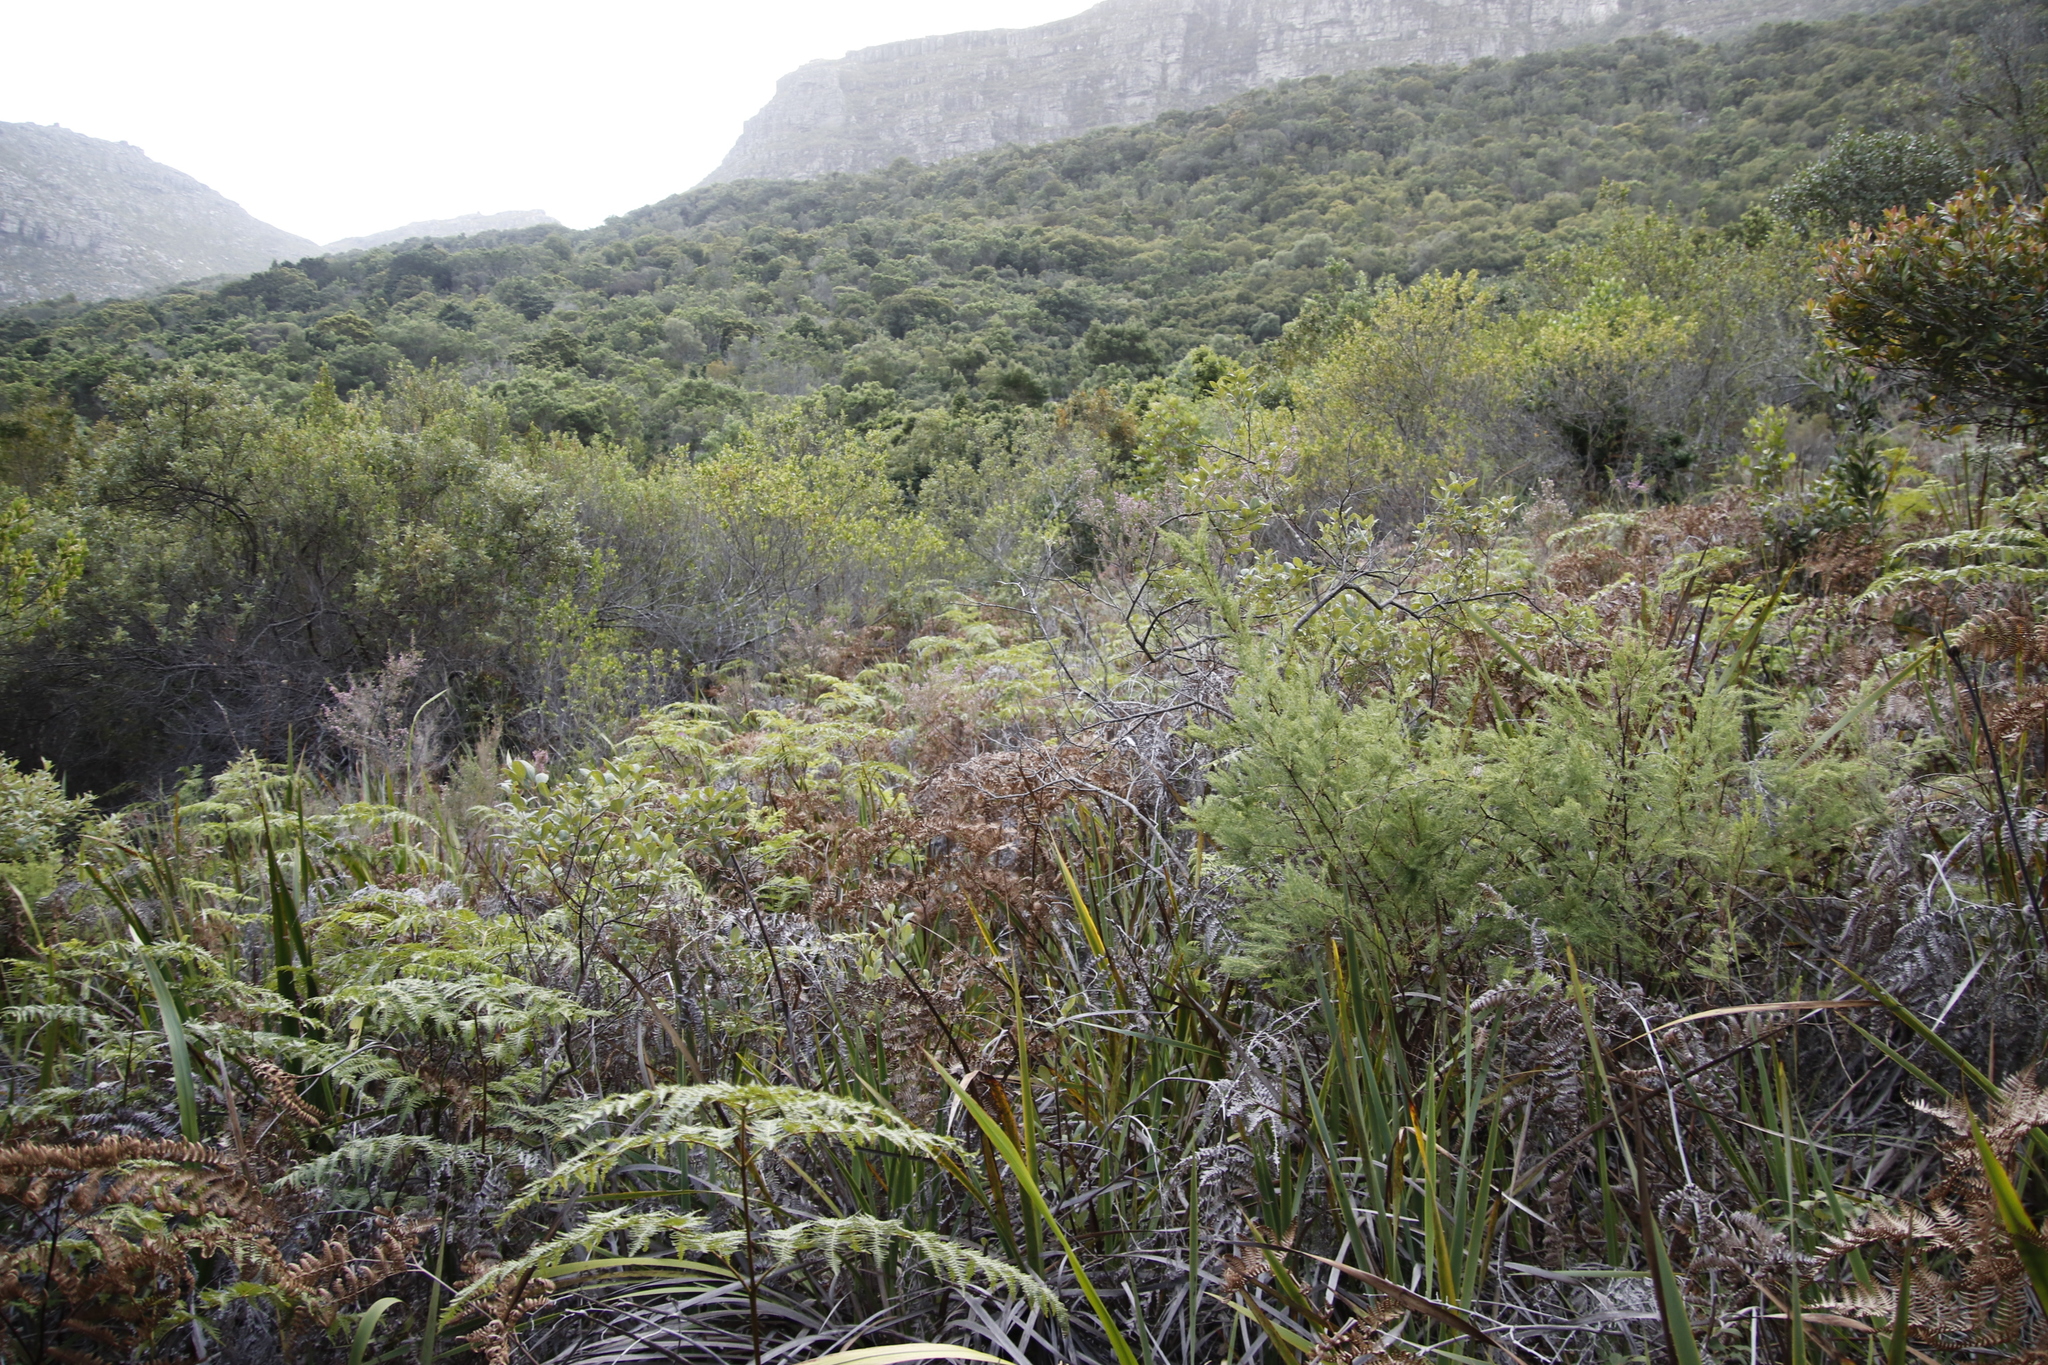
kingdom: Plantae
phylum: Tracheophyta
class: Polypodiopsida
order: Polypodiales
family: Dennstaedtiaceae
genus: Pteridium
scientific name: Pteridium aquilinum
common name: Bracken
